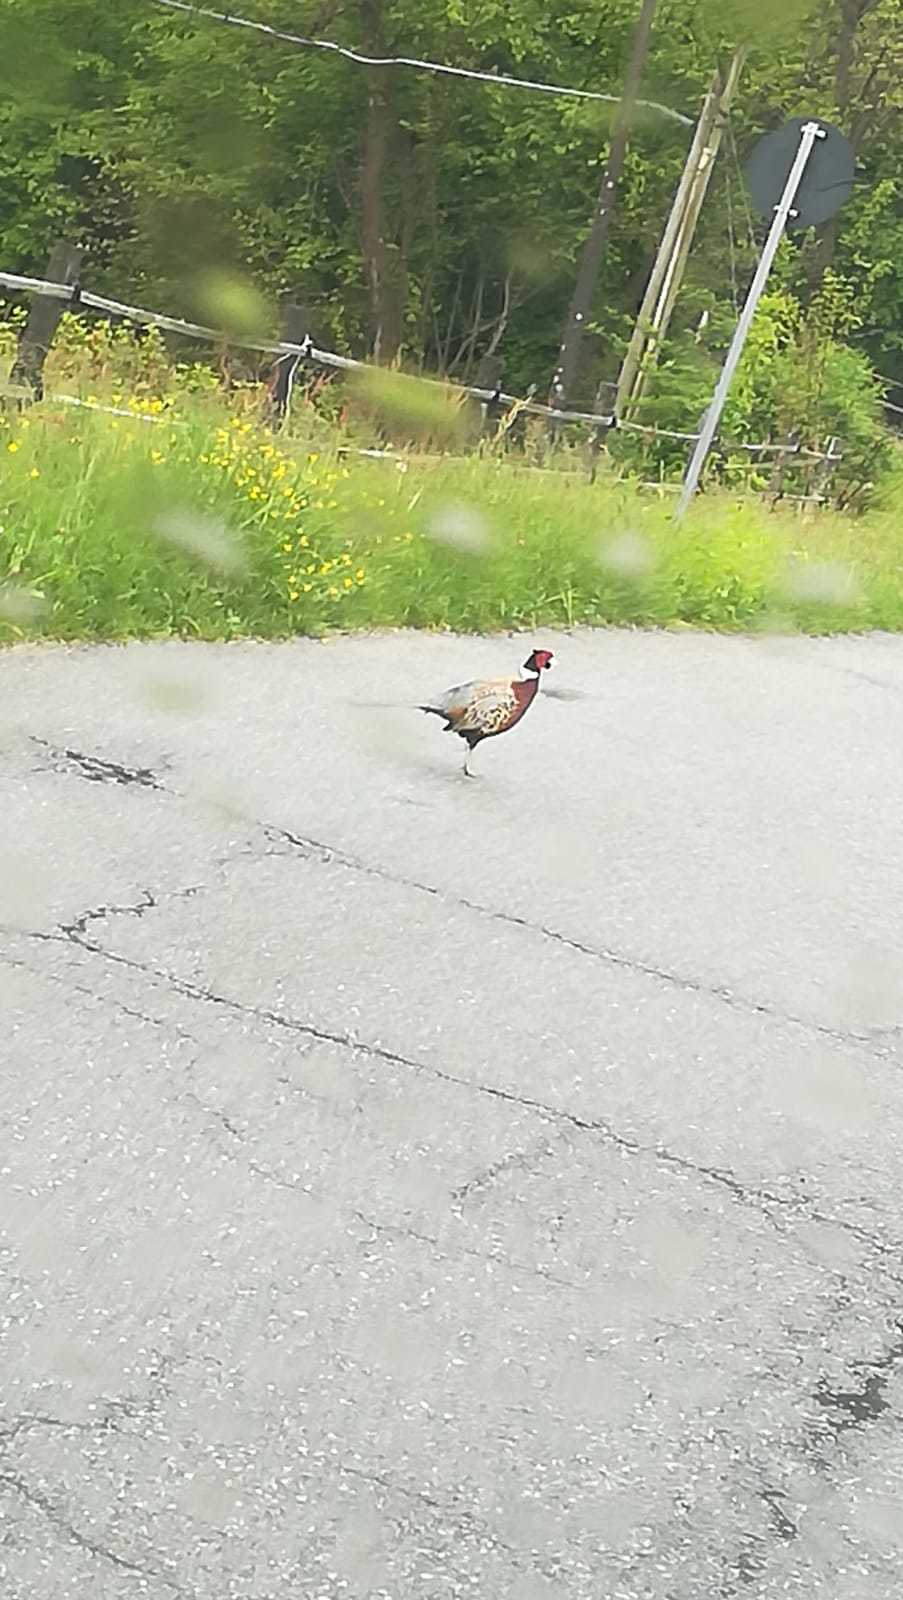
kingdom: Animalia
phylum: Chordata
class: Aves
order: Galliformes
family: Phasianidae
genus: Phasianus
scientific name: Phasianus colchicus
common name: Common pheasant
